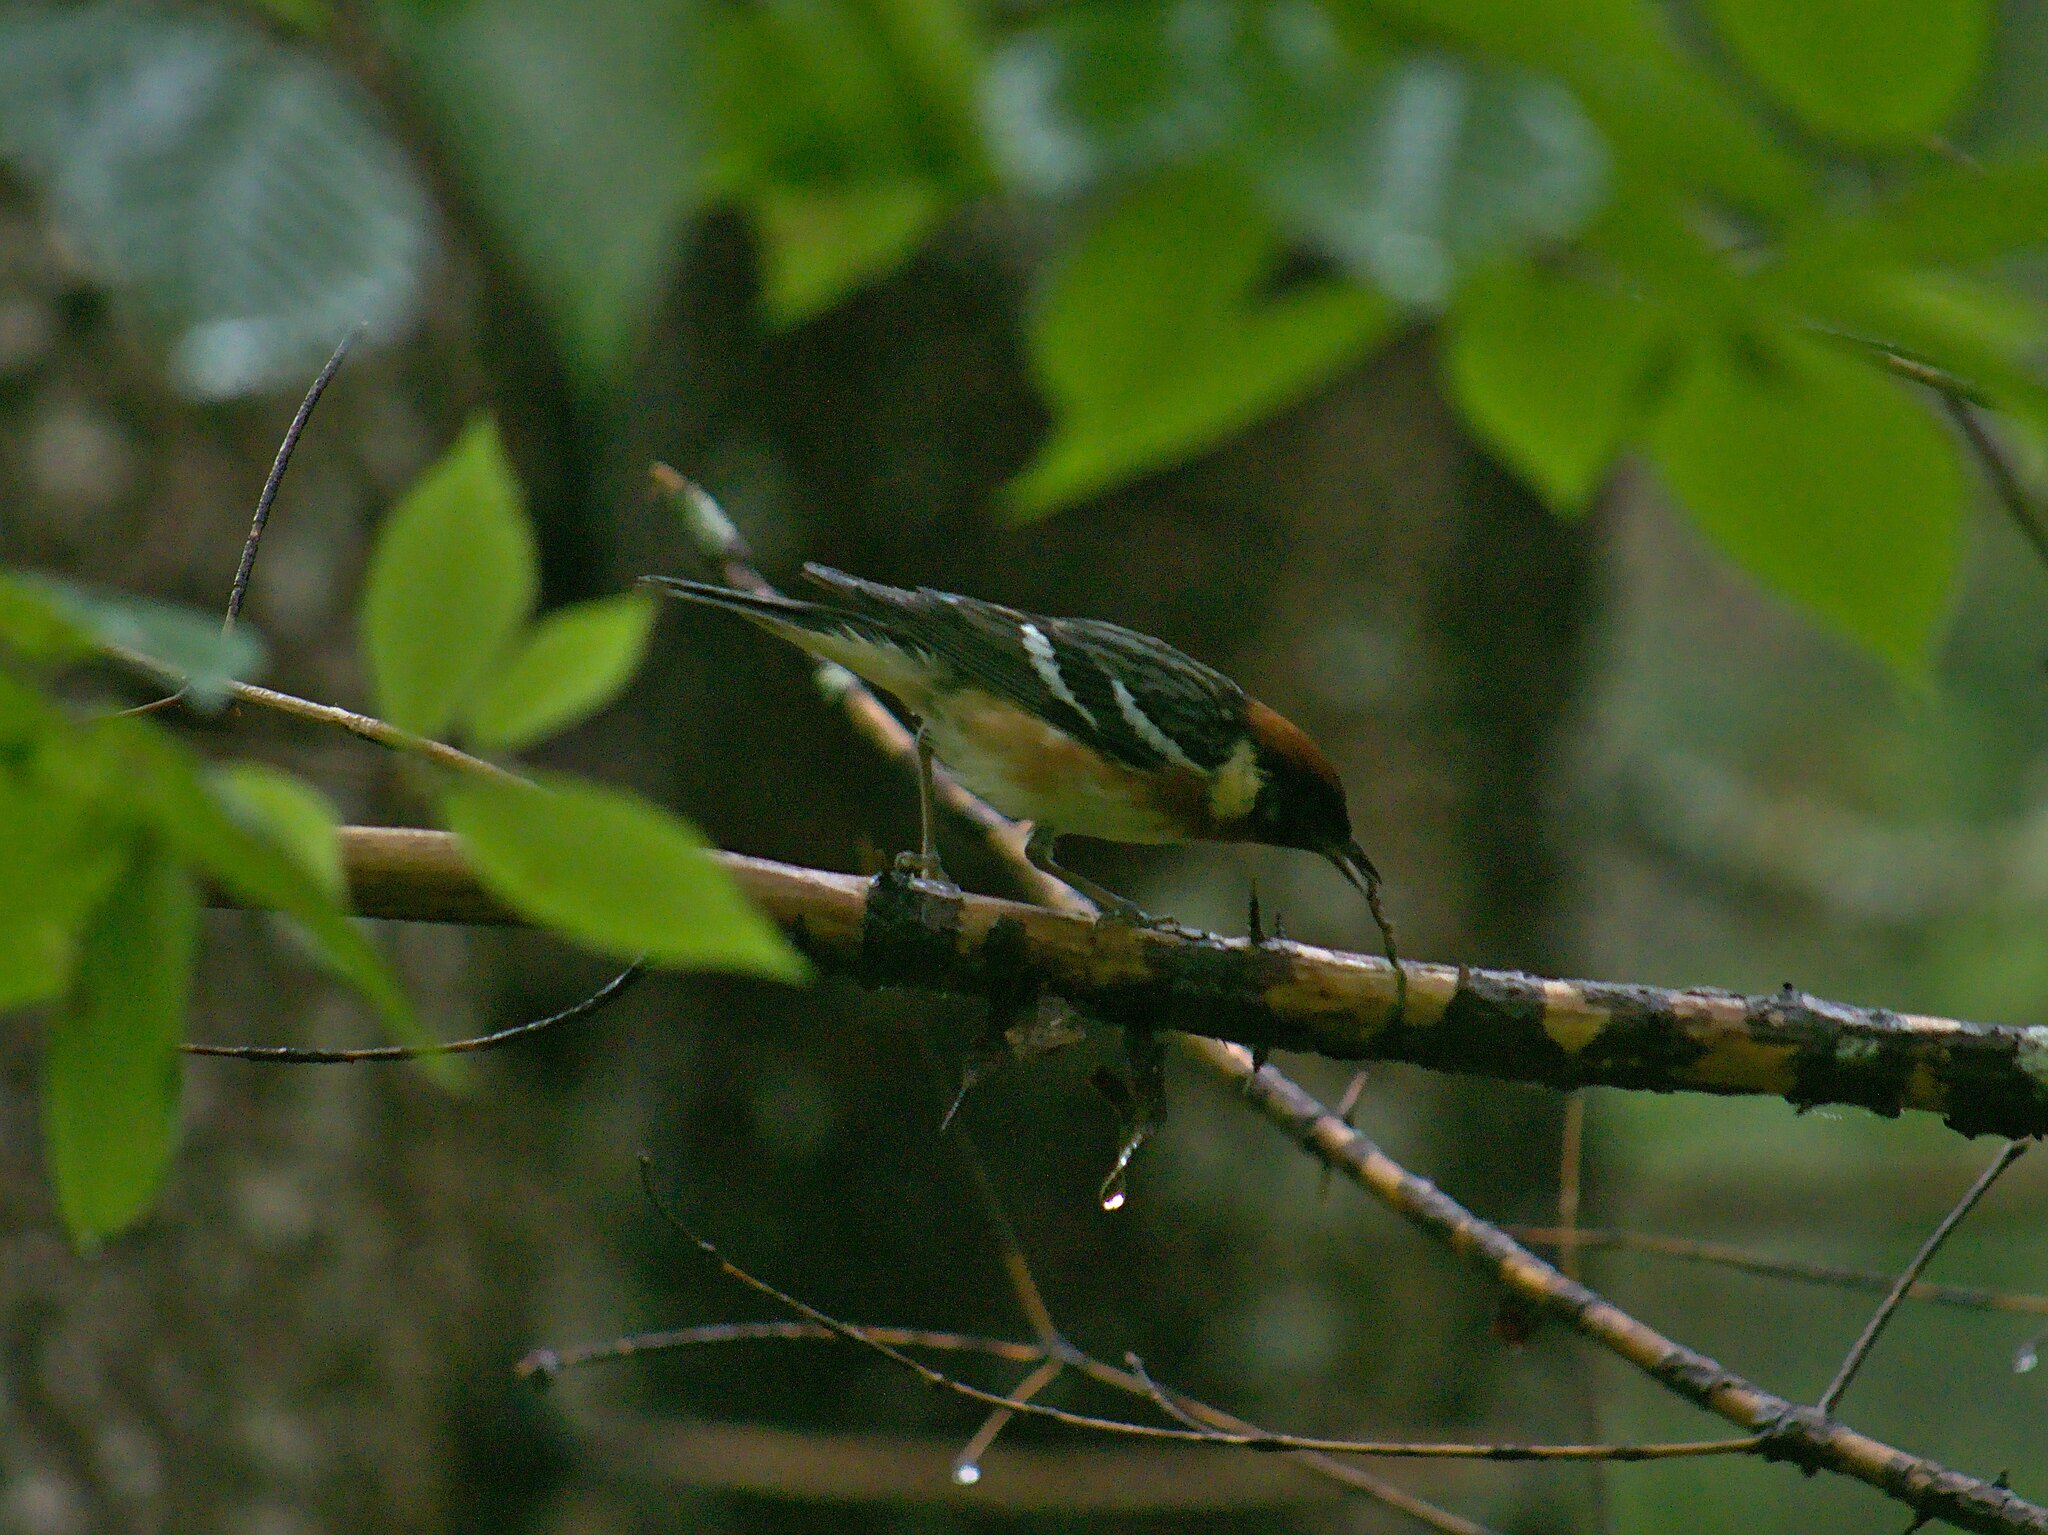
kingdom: Animalia
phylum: Chordata
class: Aves
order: Passeriformes
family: Parulidae
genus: Setophaga
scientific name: Setophaga castanea
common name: Bay-breasted warbler
